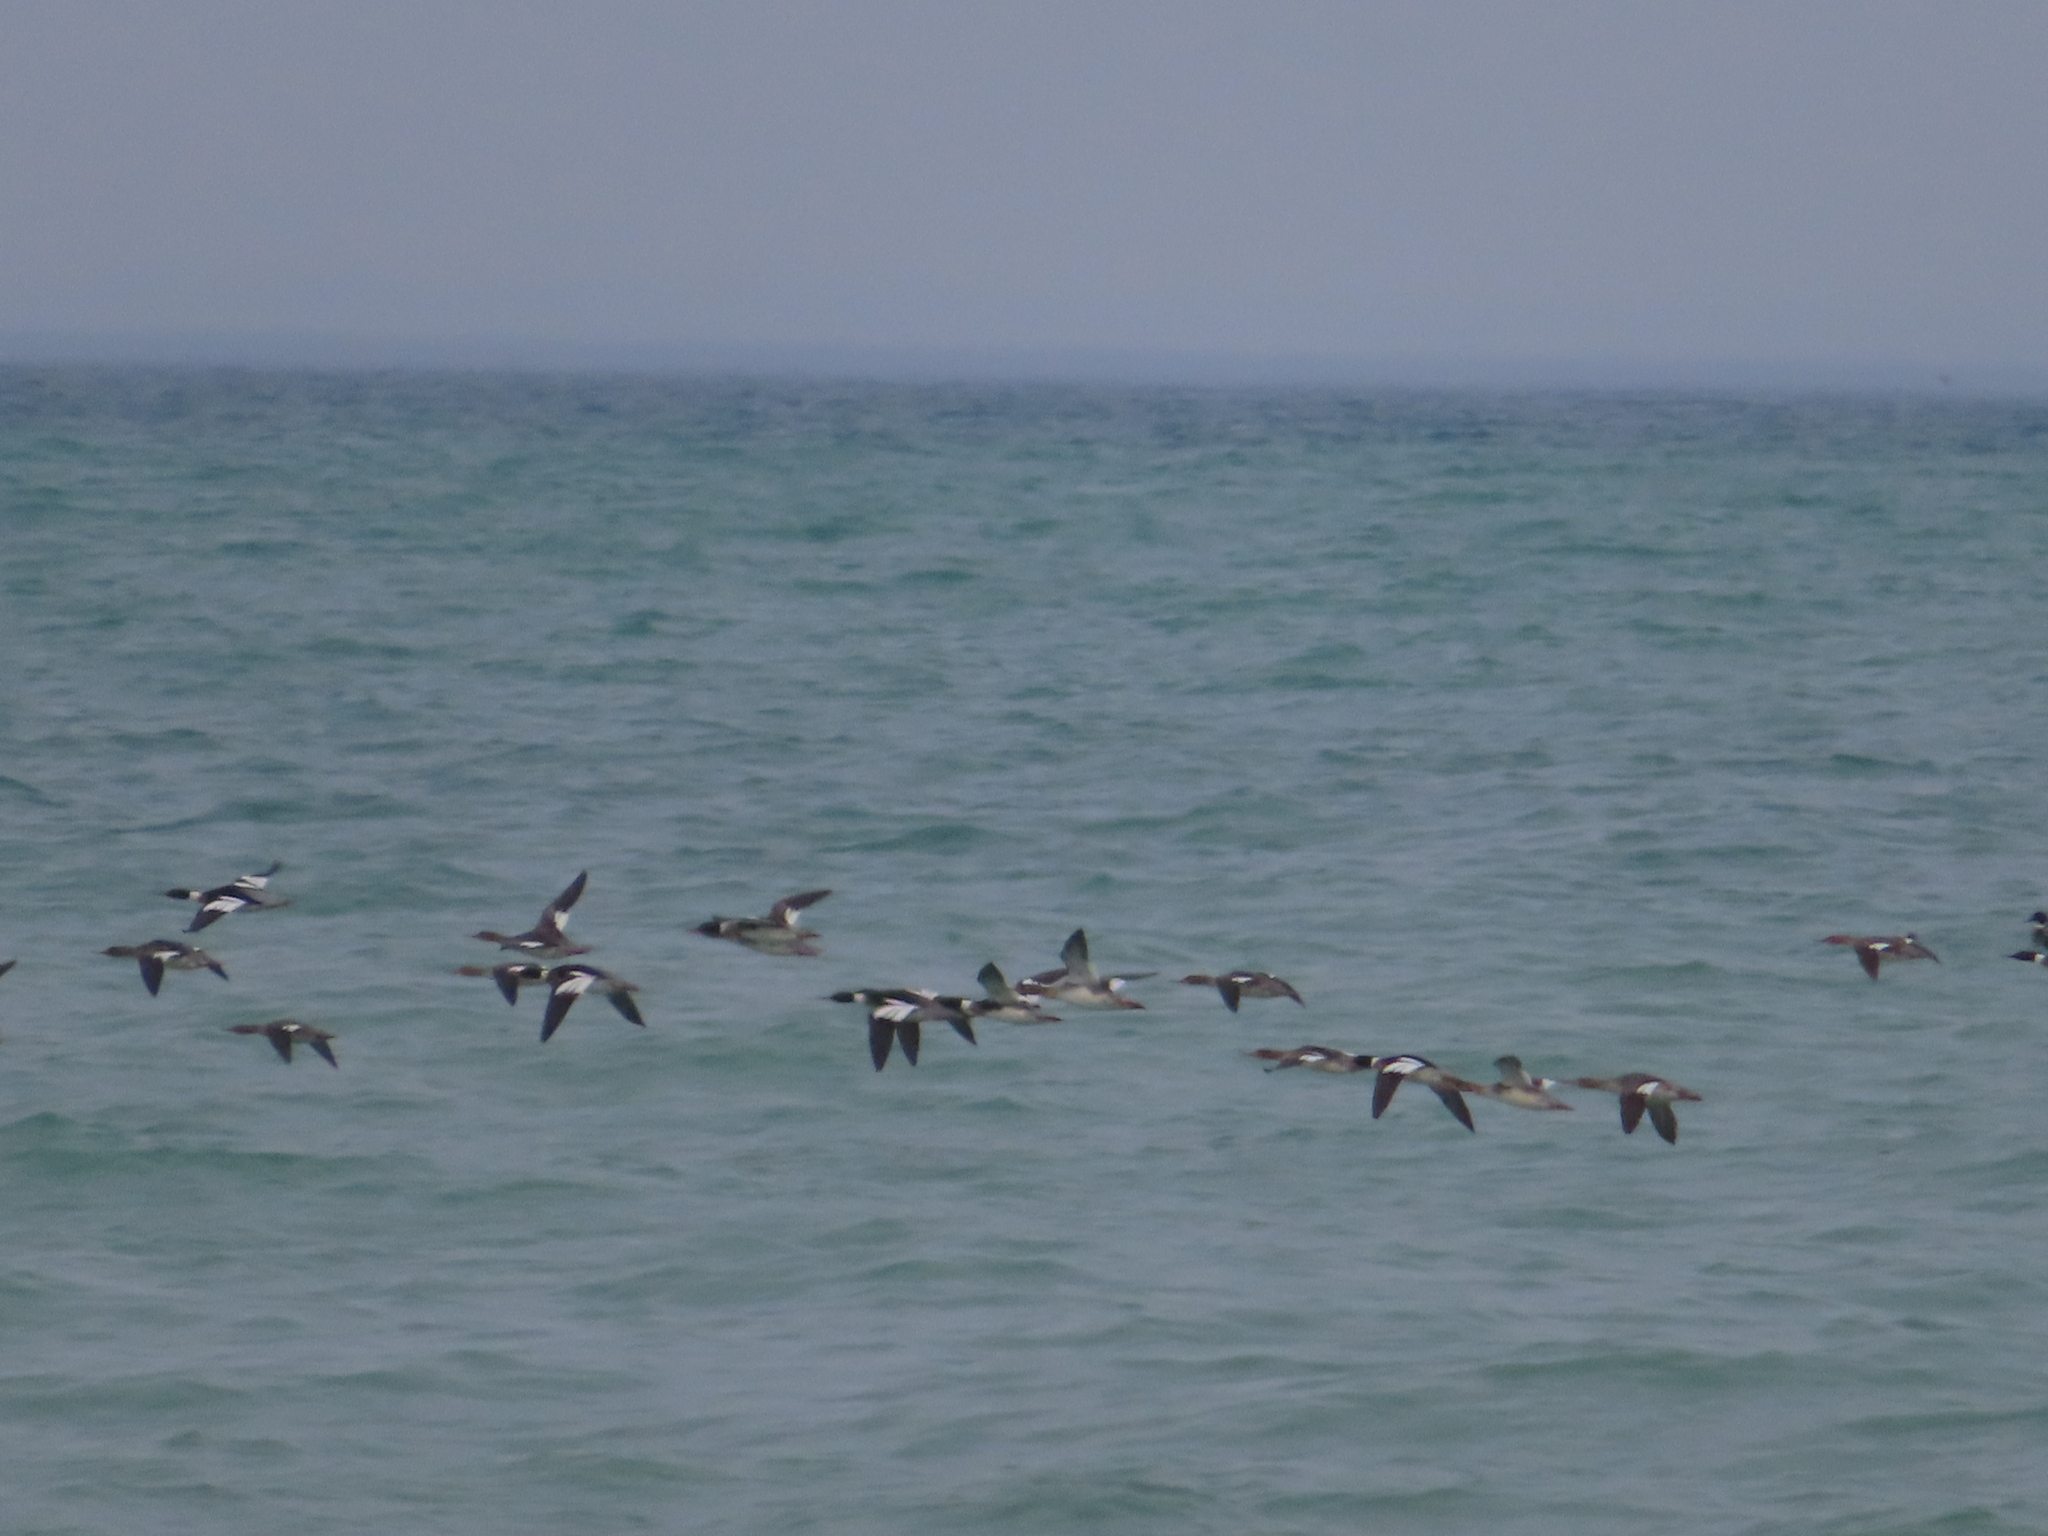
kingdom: Animalia
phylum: Chordata
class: Aves
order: Anseriformes
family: Anatidae
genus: Mergus
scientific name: Mergus serrator
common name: Red-breasted merganser
